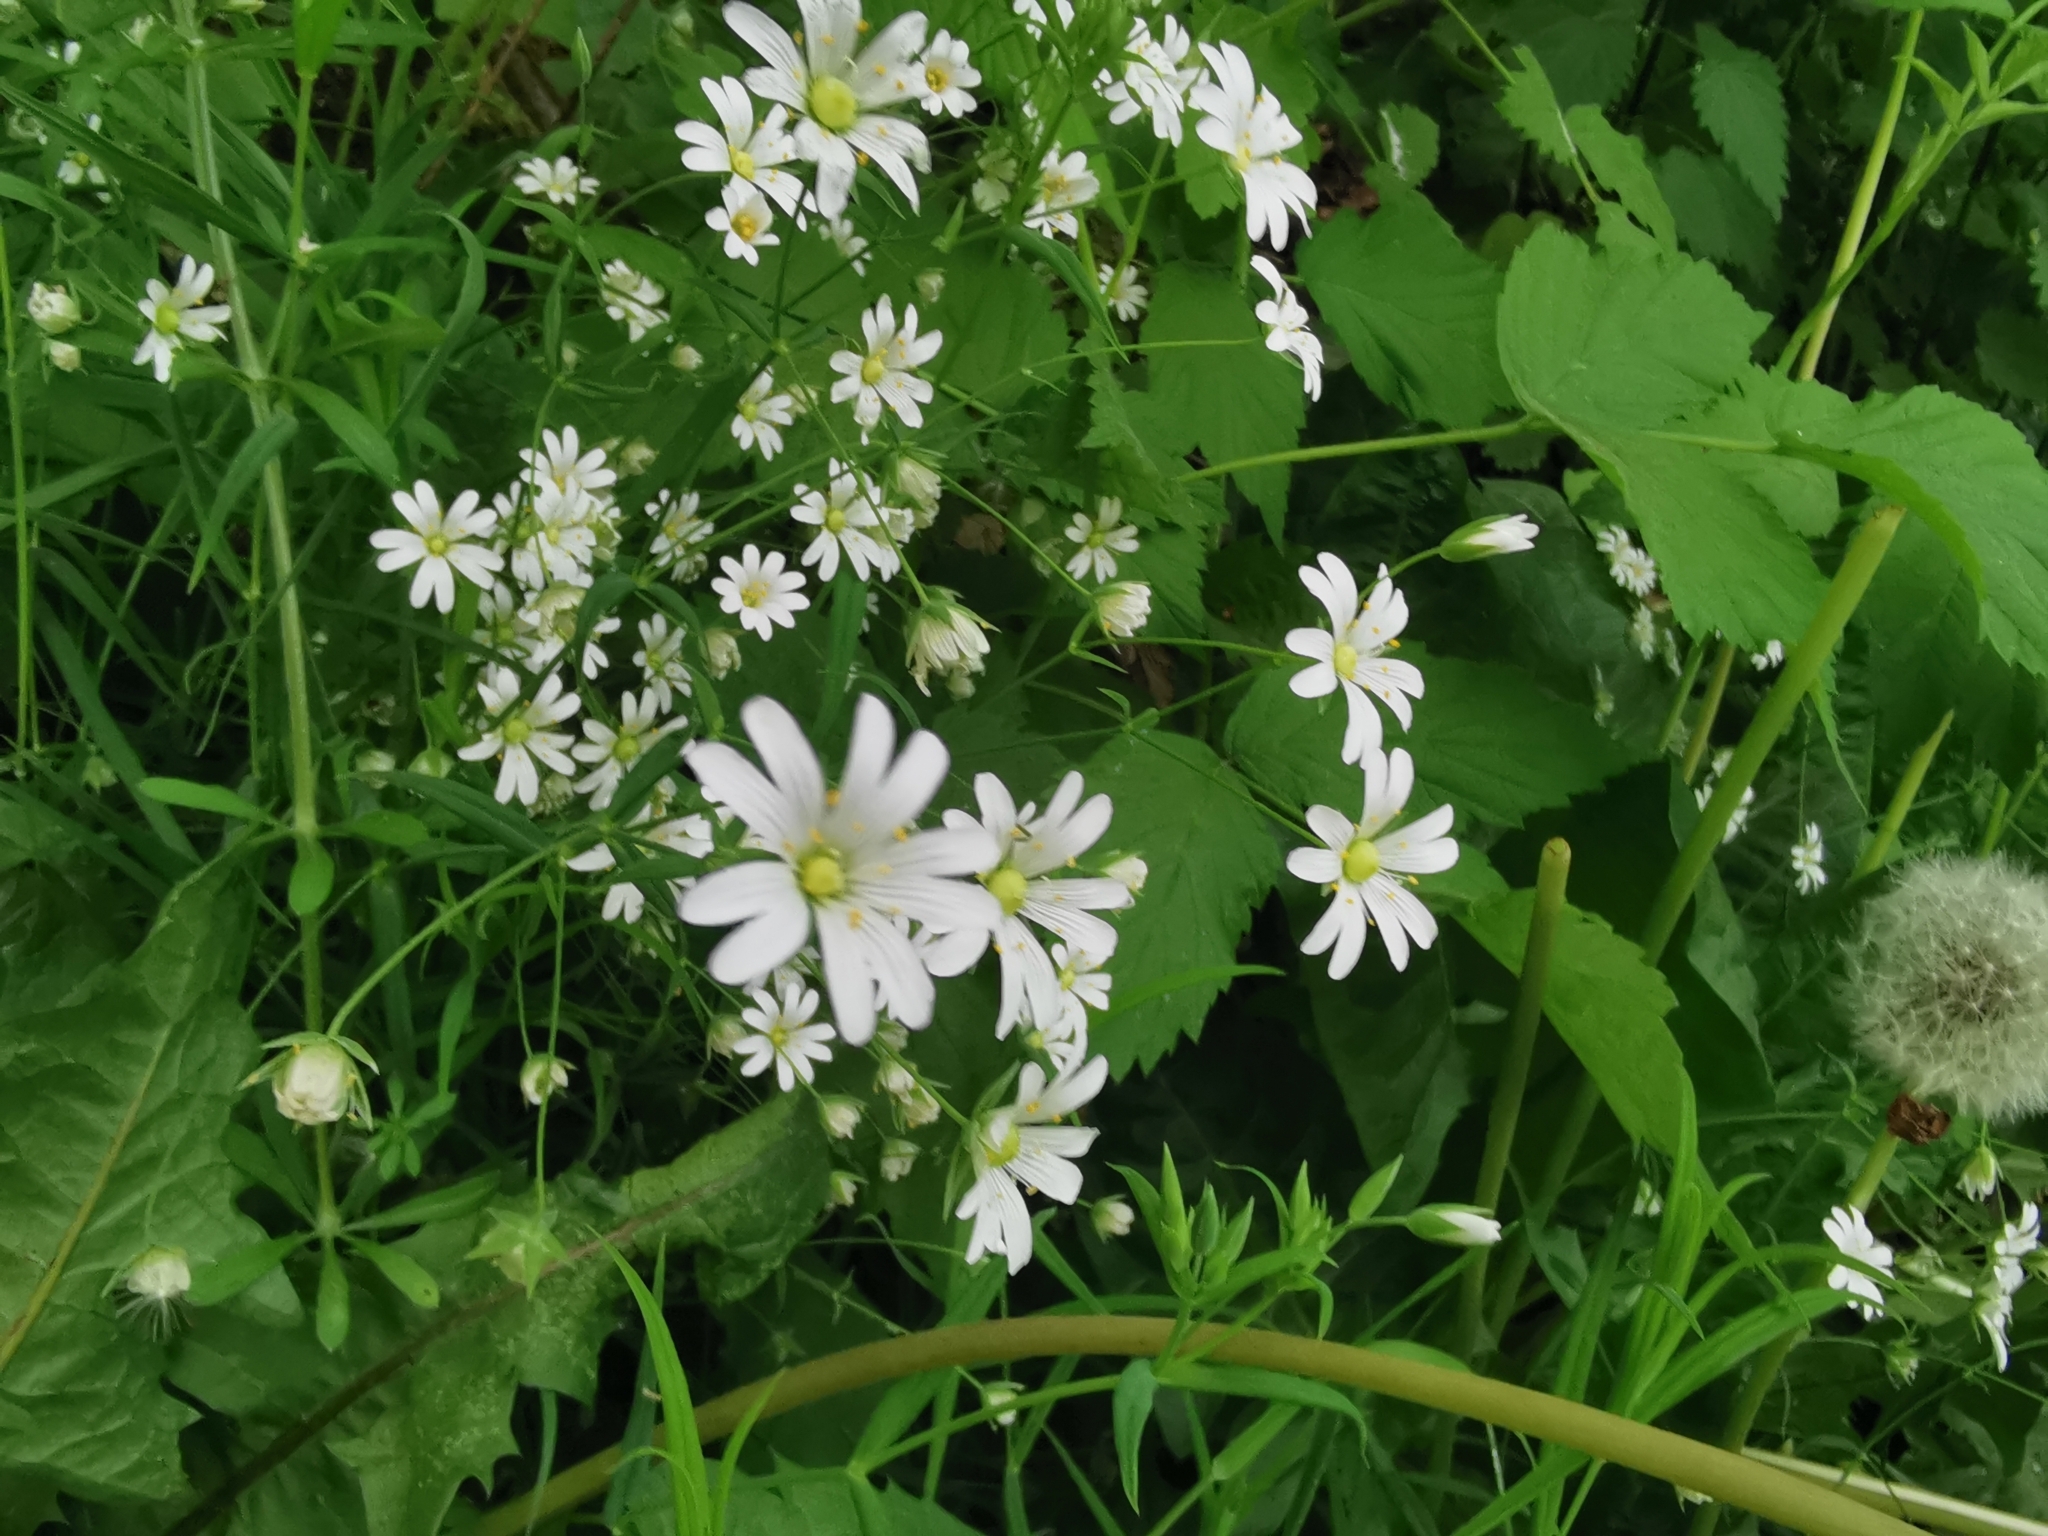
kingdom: Plantae
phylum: Tracheophyta
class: Magnoliopsida
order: Caryophyllales
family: Caryophyllaceae
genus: Rabelera
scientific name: Rabelera holostea
